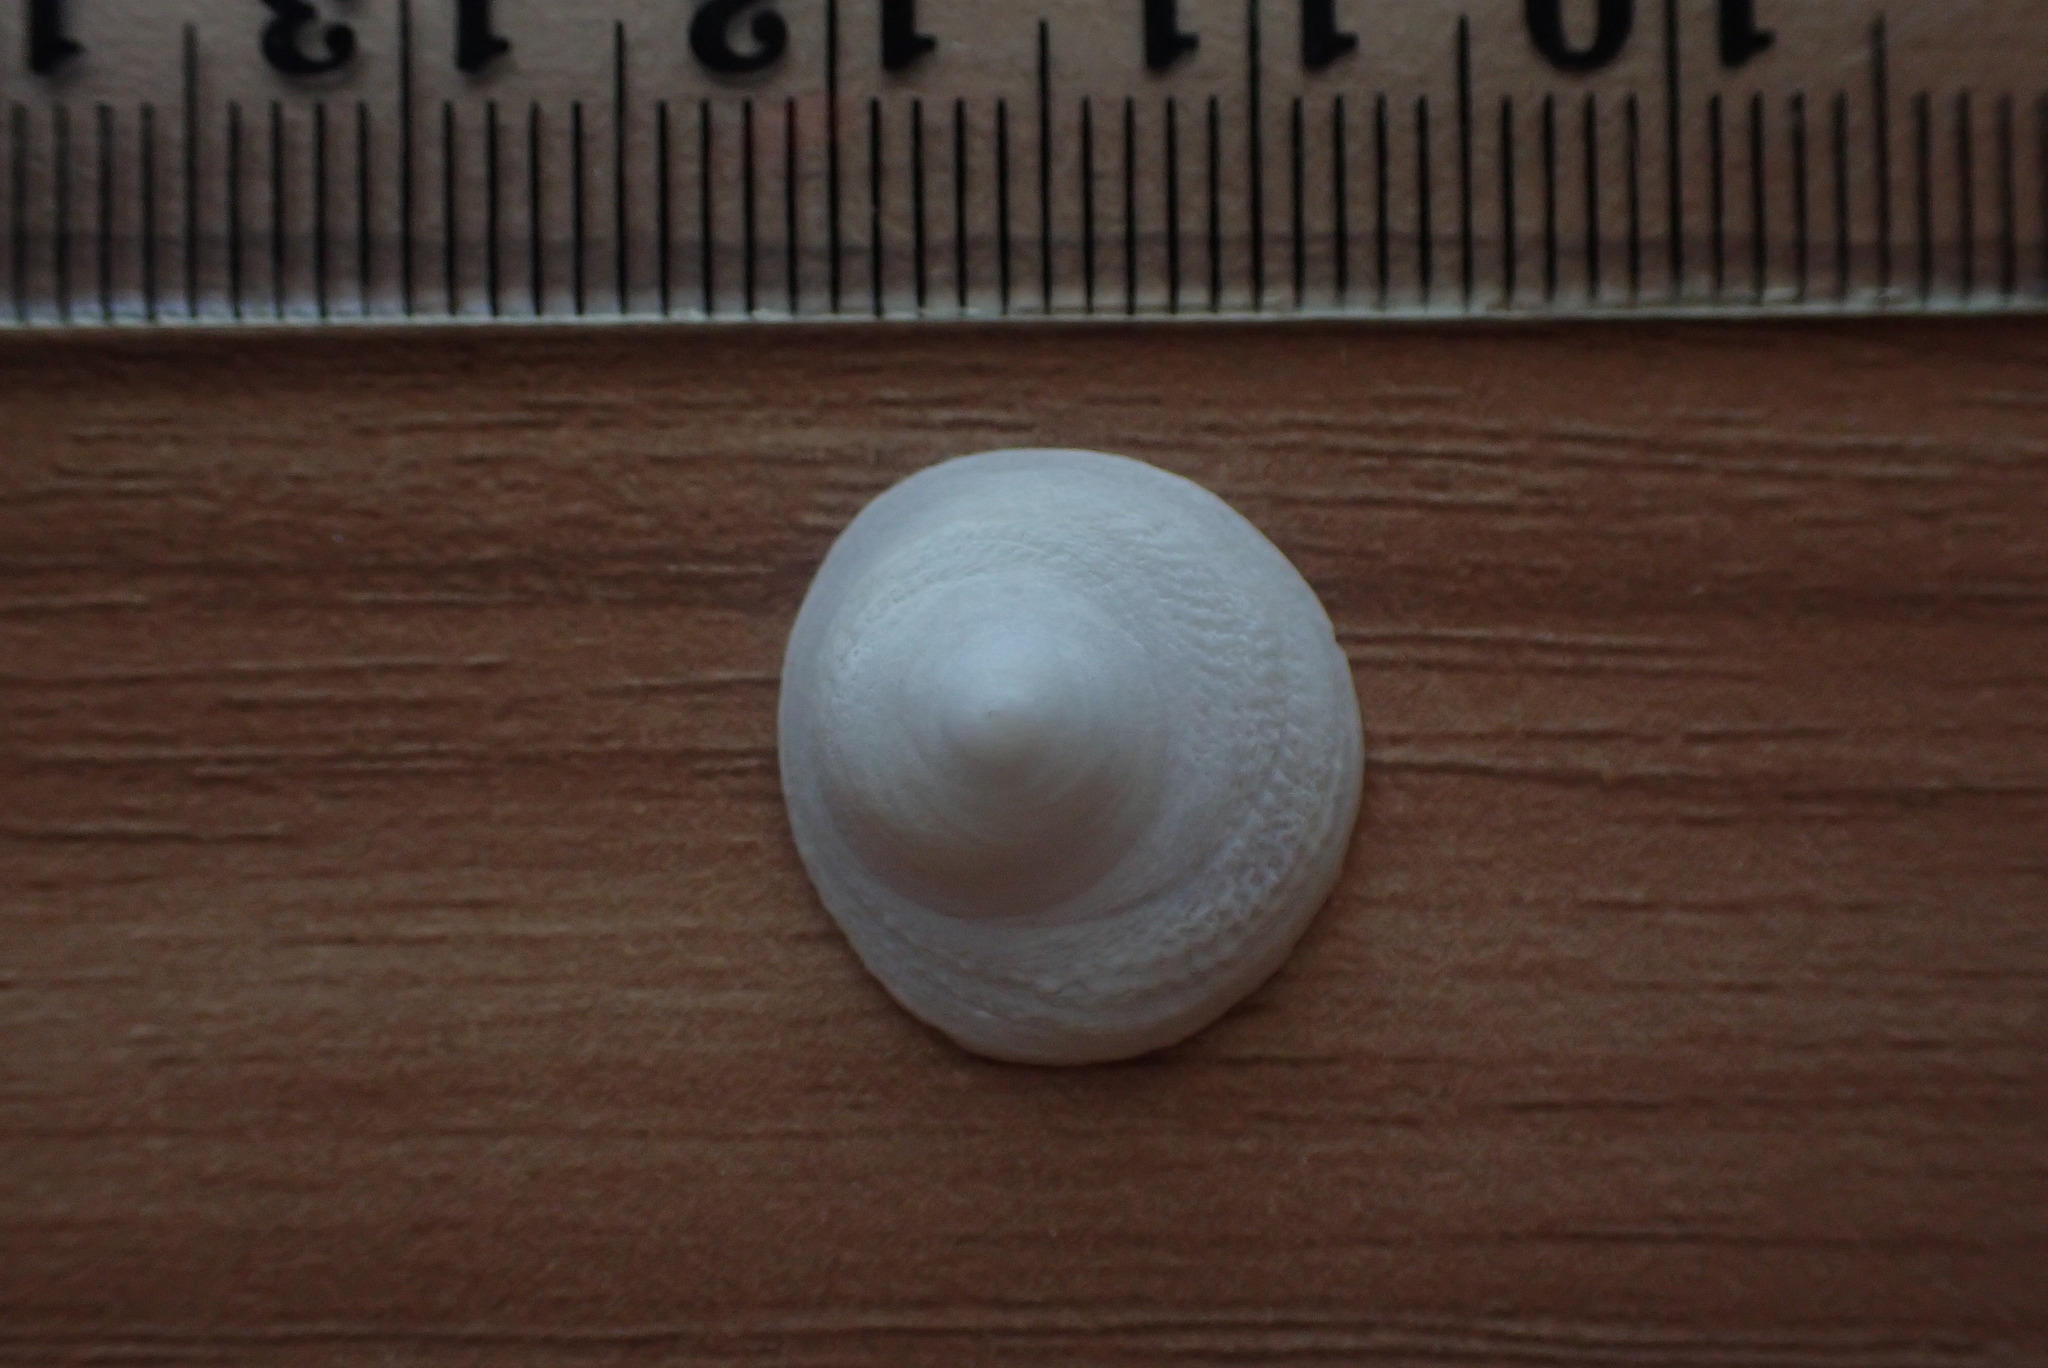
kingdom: Animalia
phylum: Mollusca
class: Gastropoda
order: Littorinimorpha
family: Calyptraeidae
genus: Sigapatella
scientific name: Sigapatella tenuis
